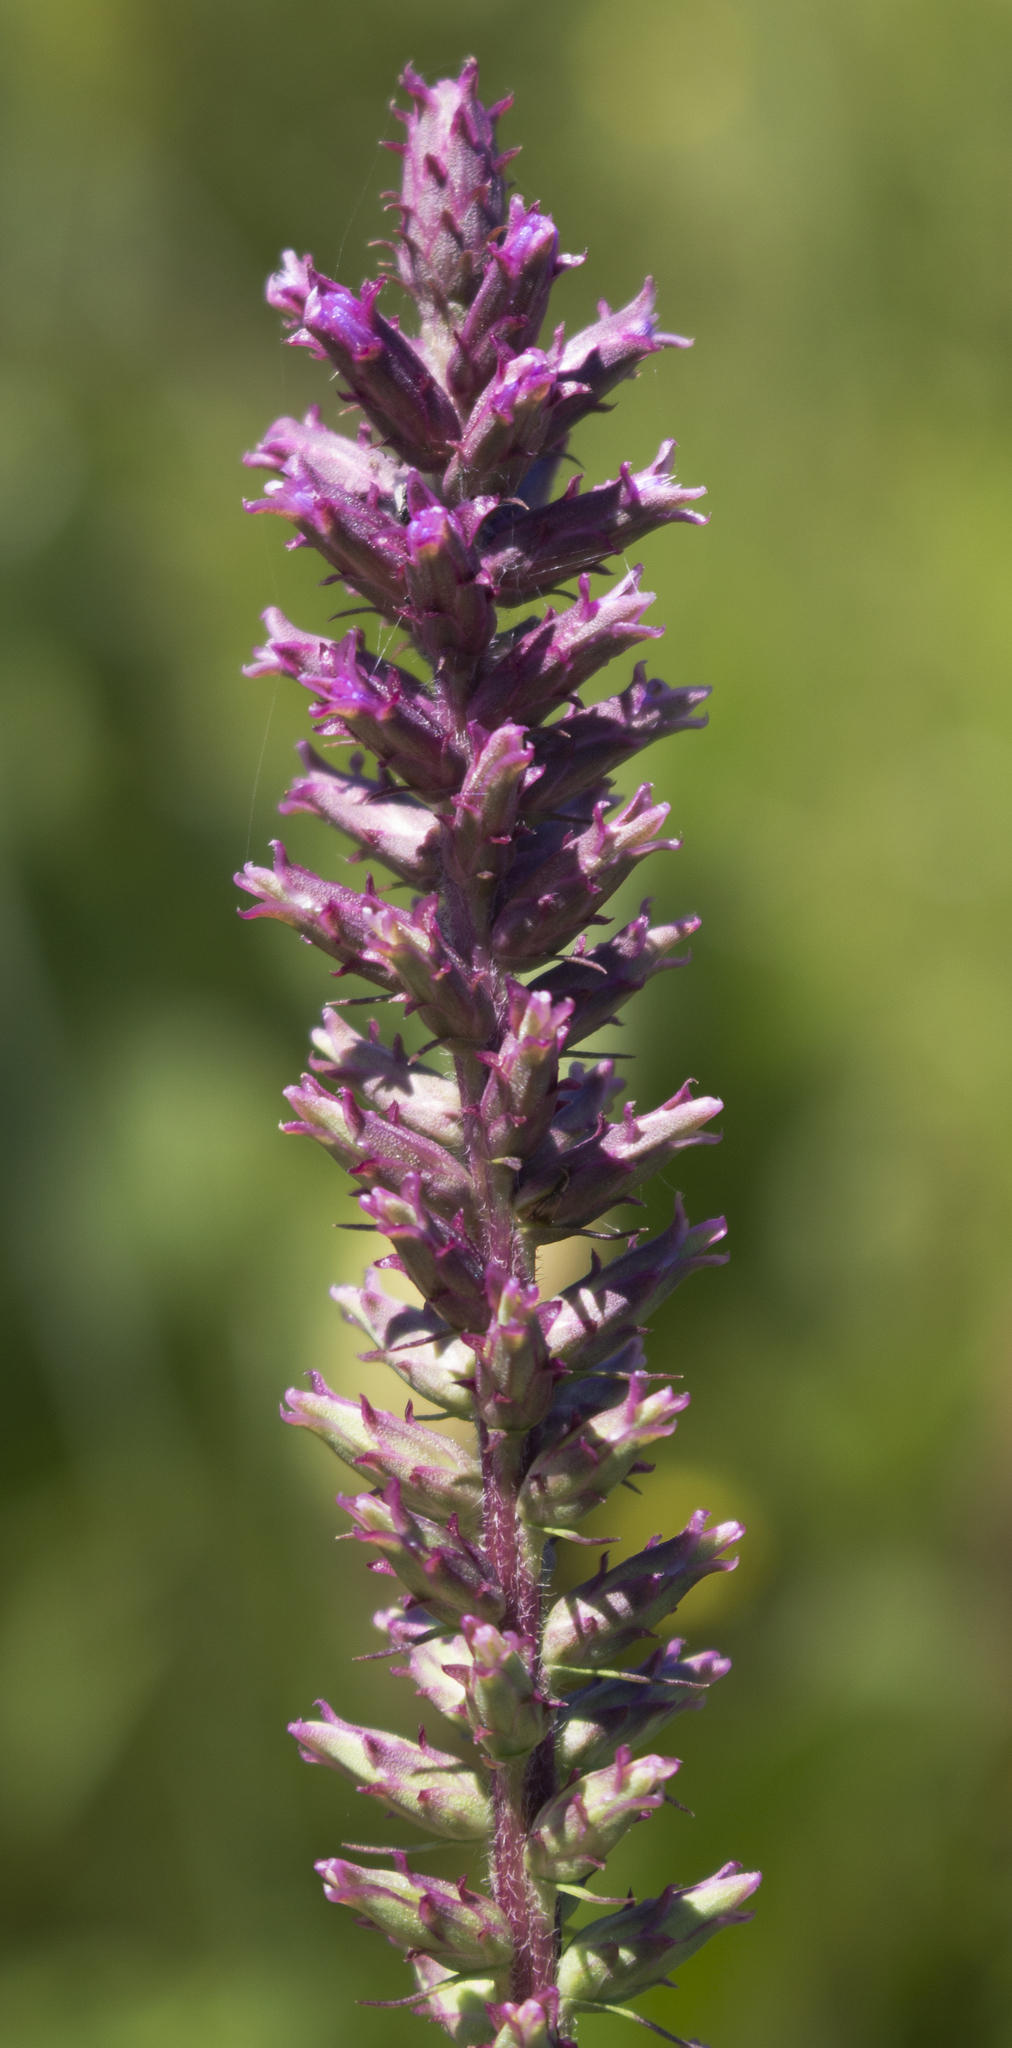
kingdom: Plantae
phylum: Tracheophyta
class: Magnoliopsida
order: Asterales
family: Asteraceae
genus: Liatris
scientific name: Liatris pycnostachya
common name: Cattail gayfeather
